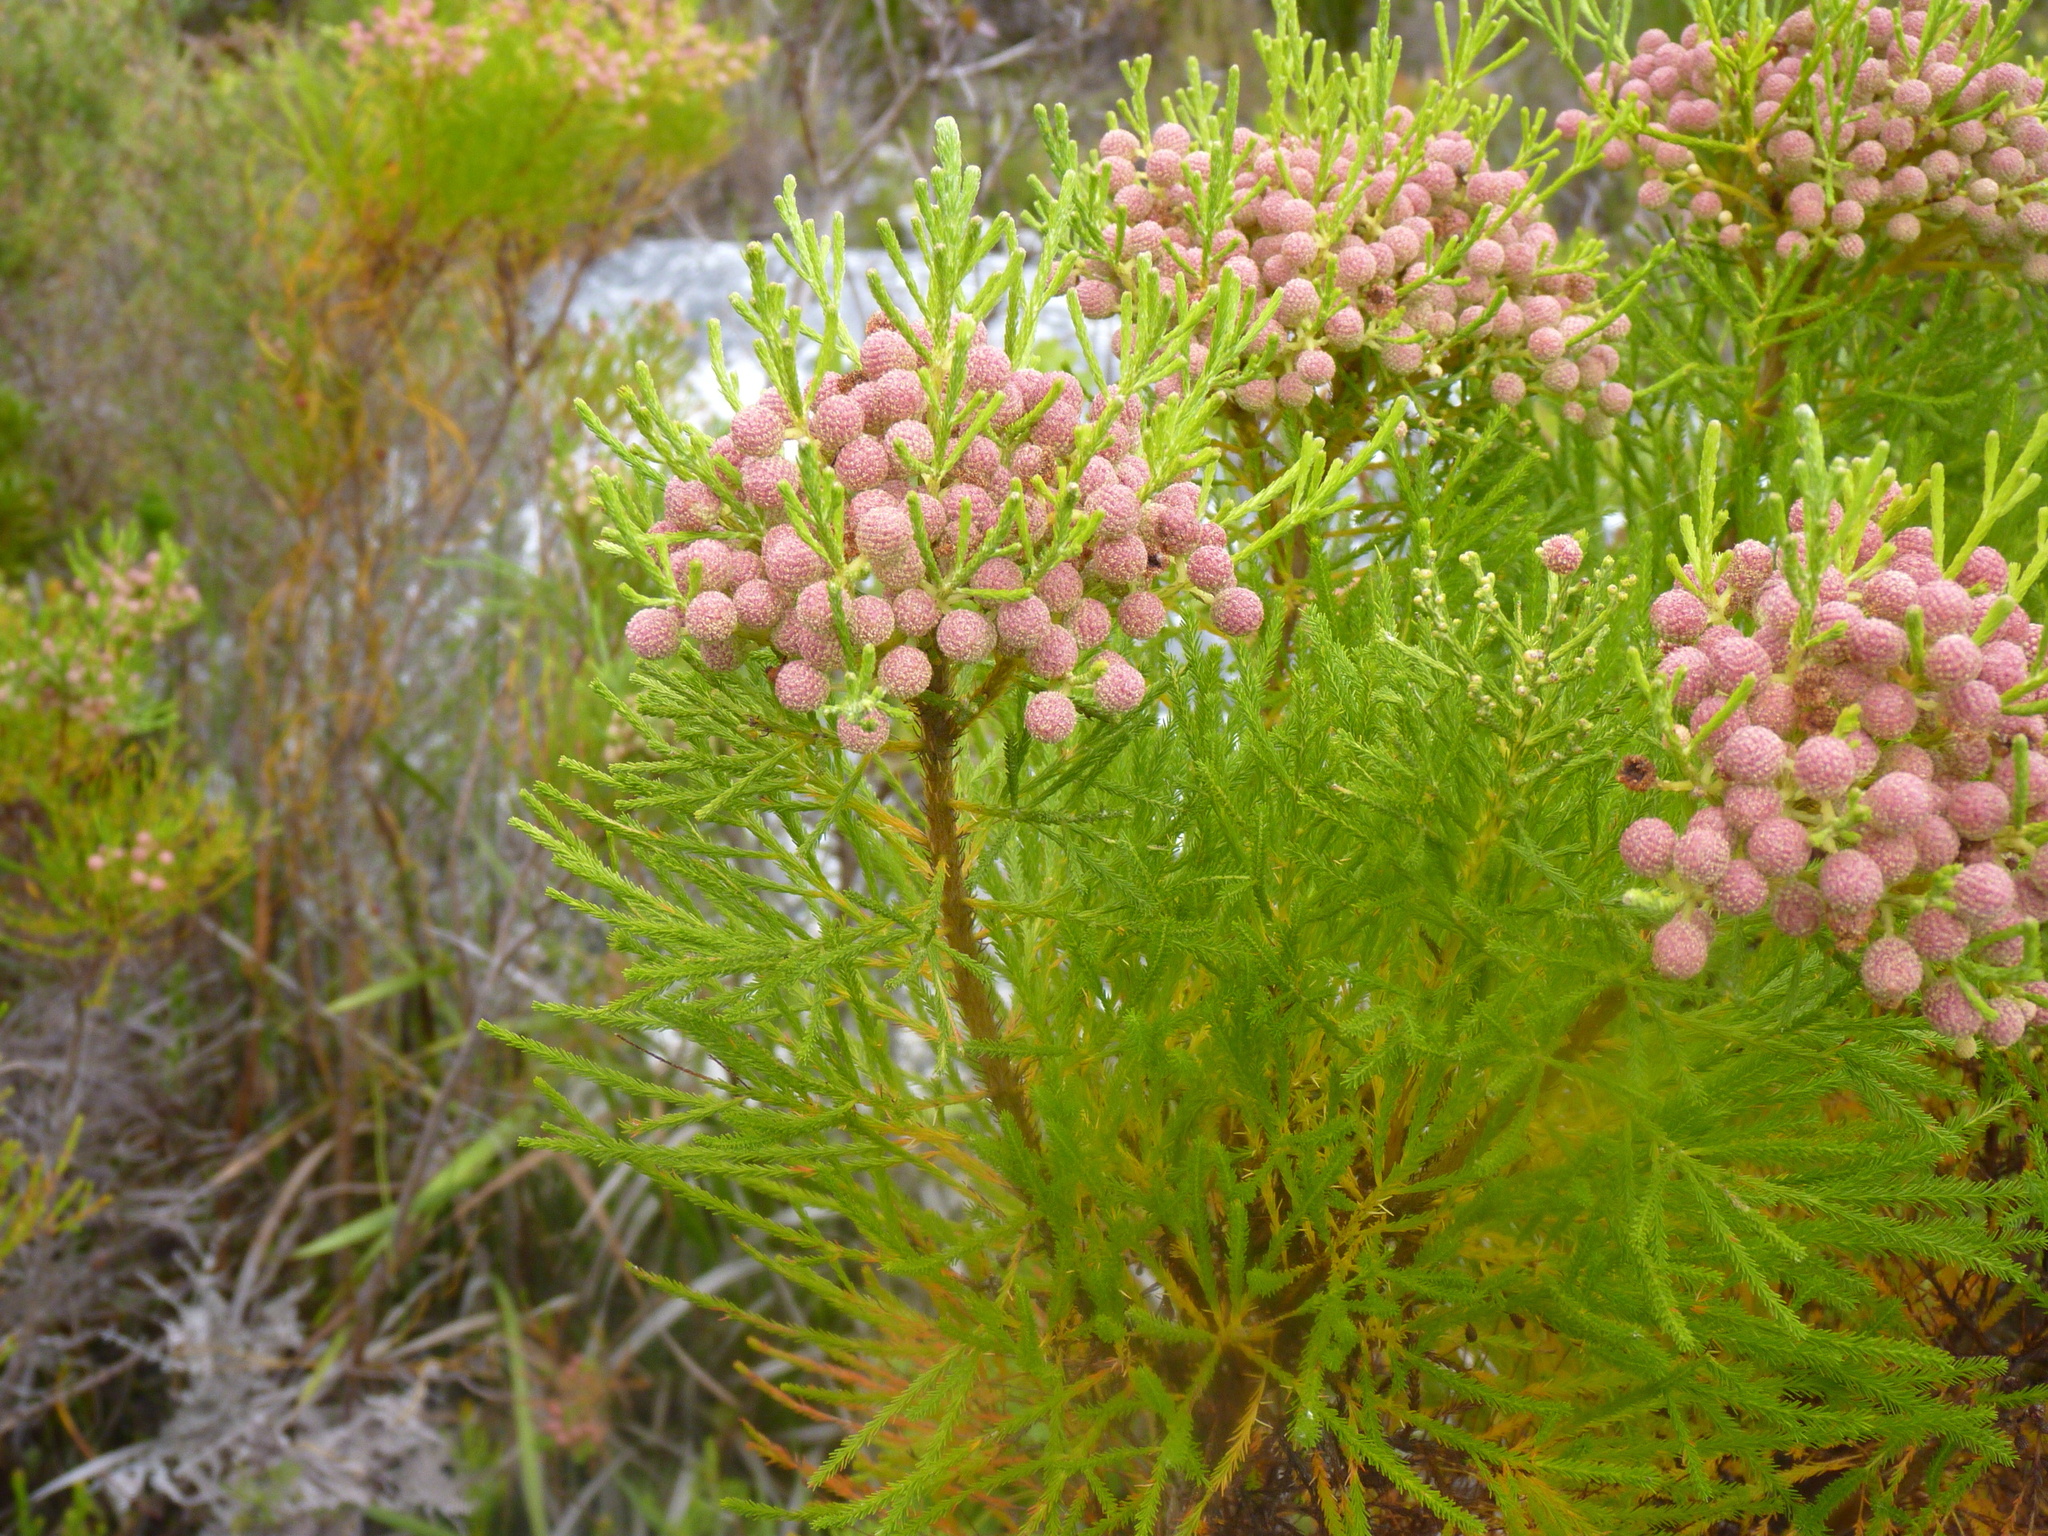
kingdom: Plantae
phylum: Tracheophyta
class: Magnoliopsida
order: Bruniales
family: Bruniaceae
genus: Berzelia
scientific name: Berzelia lanuginosa
